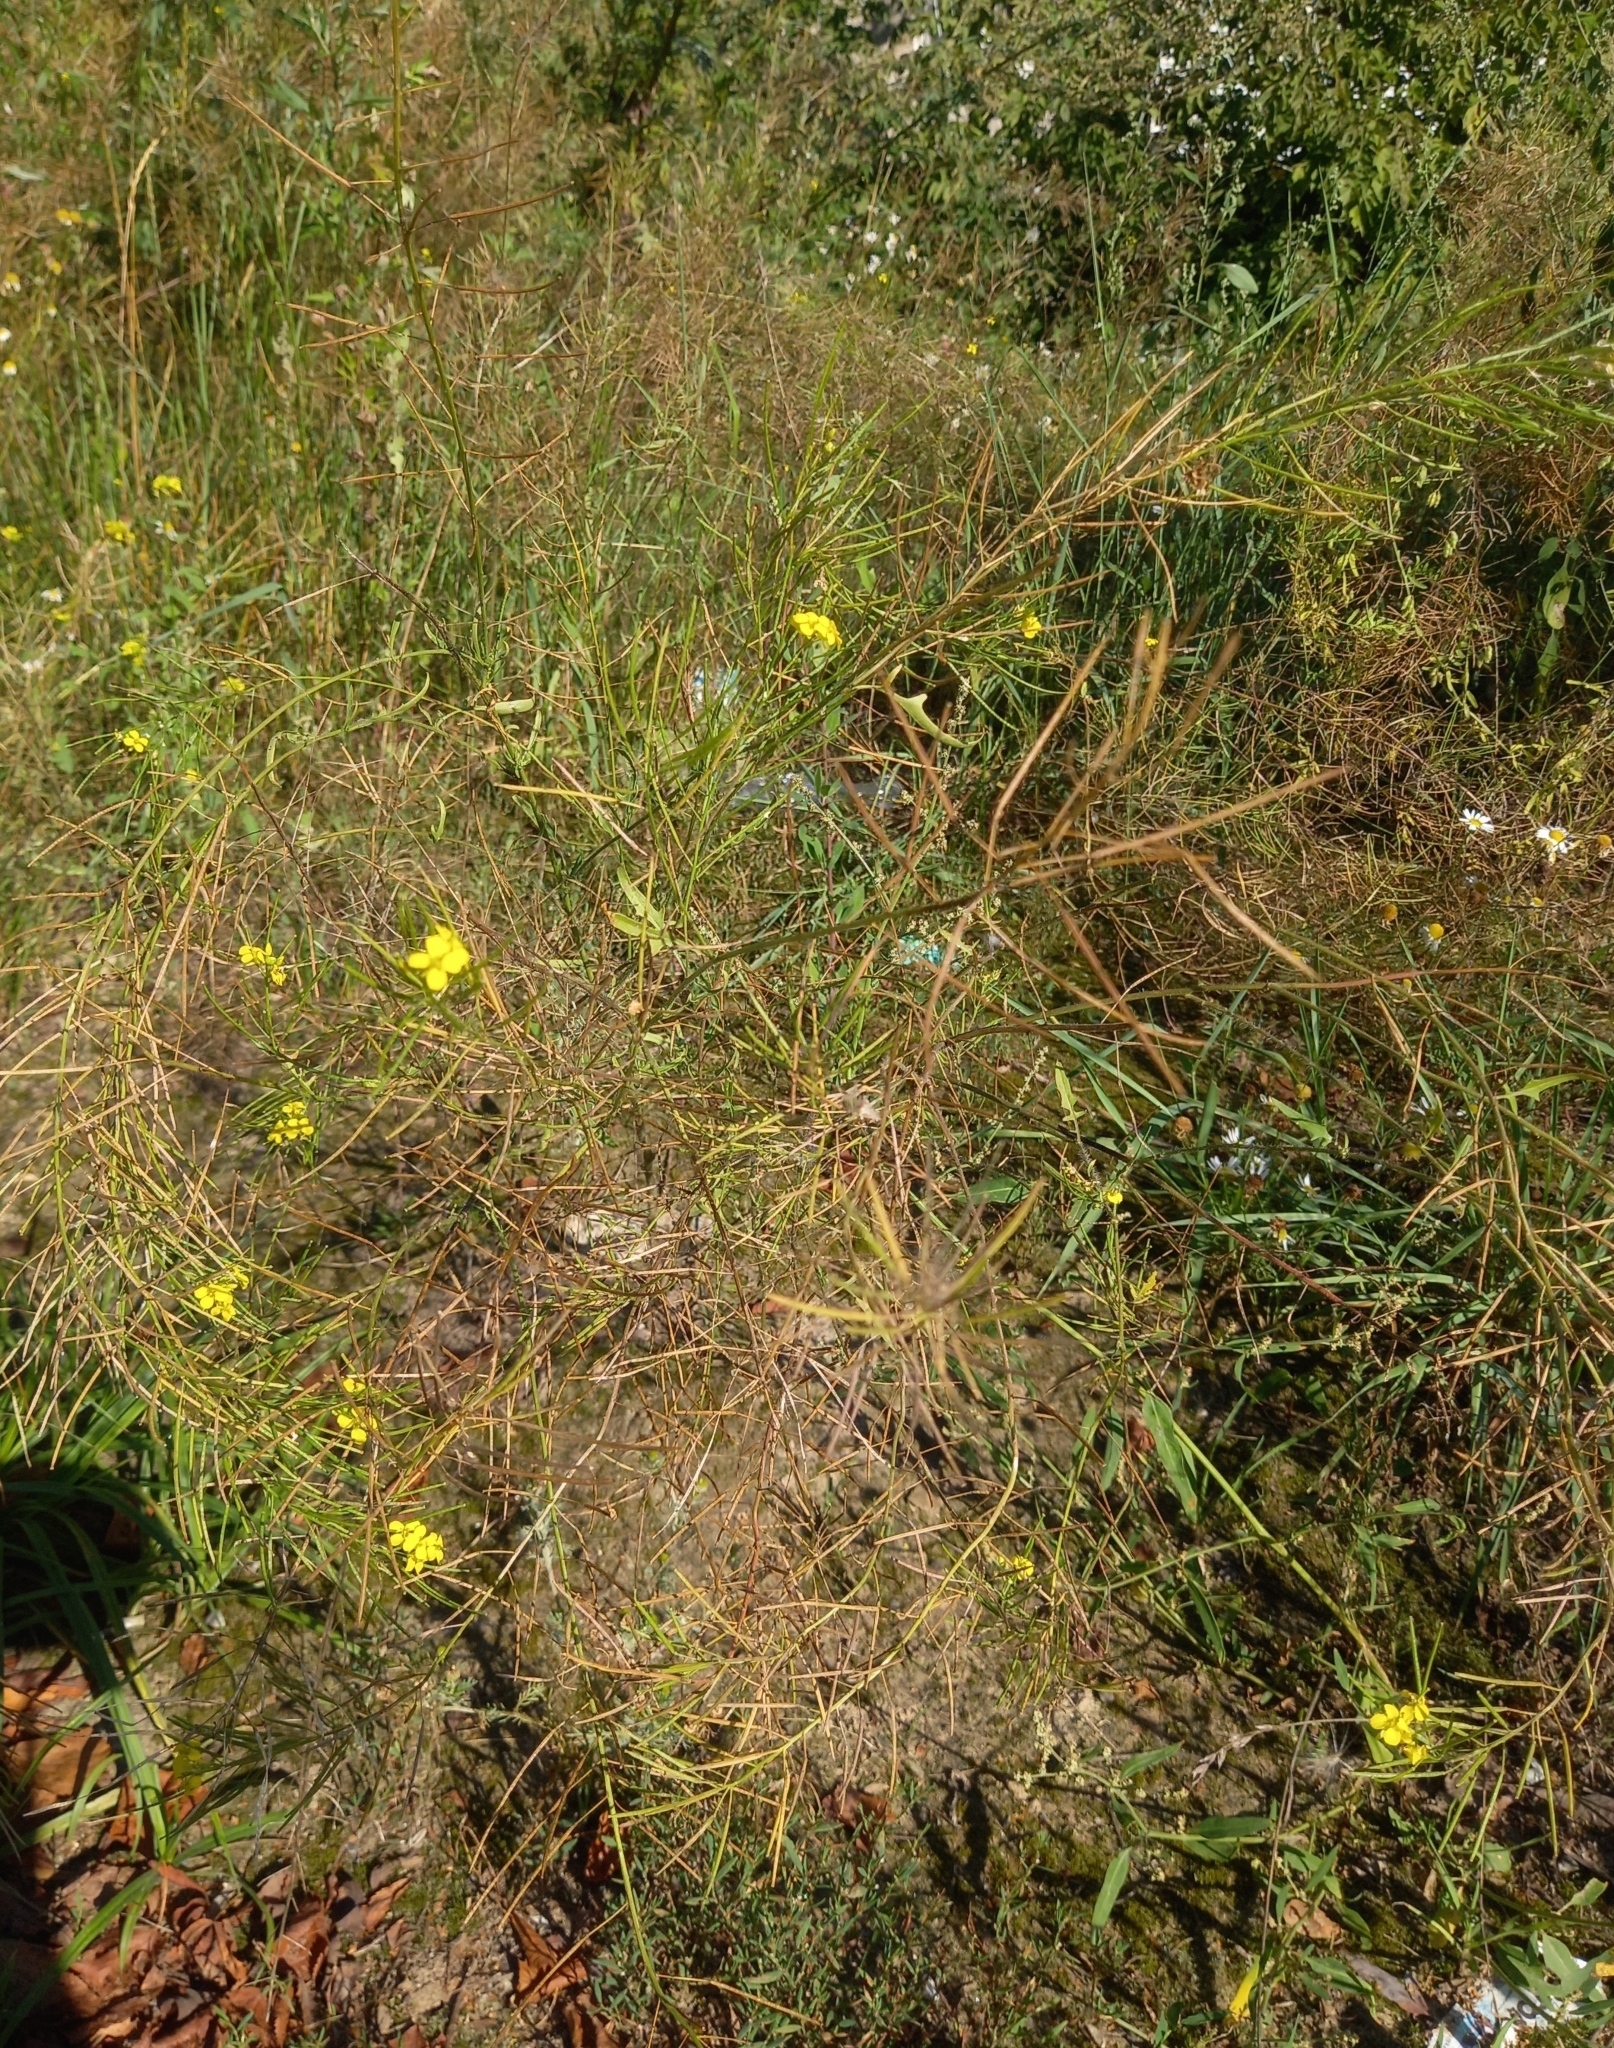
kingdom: Plantae
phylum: Tracheophyta
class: Magnoliopsida
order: Brassicales
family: Brassicaceae
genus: Sisymbrium
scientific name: Sisymbrium loeselii
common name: False london-rocket
